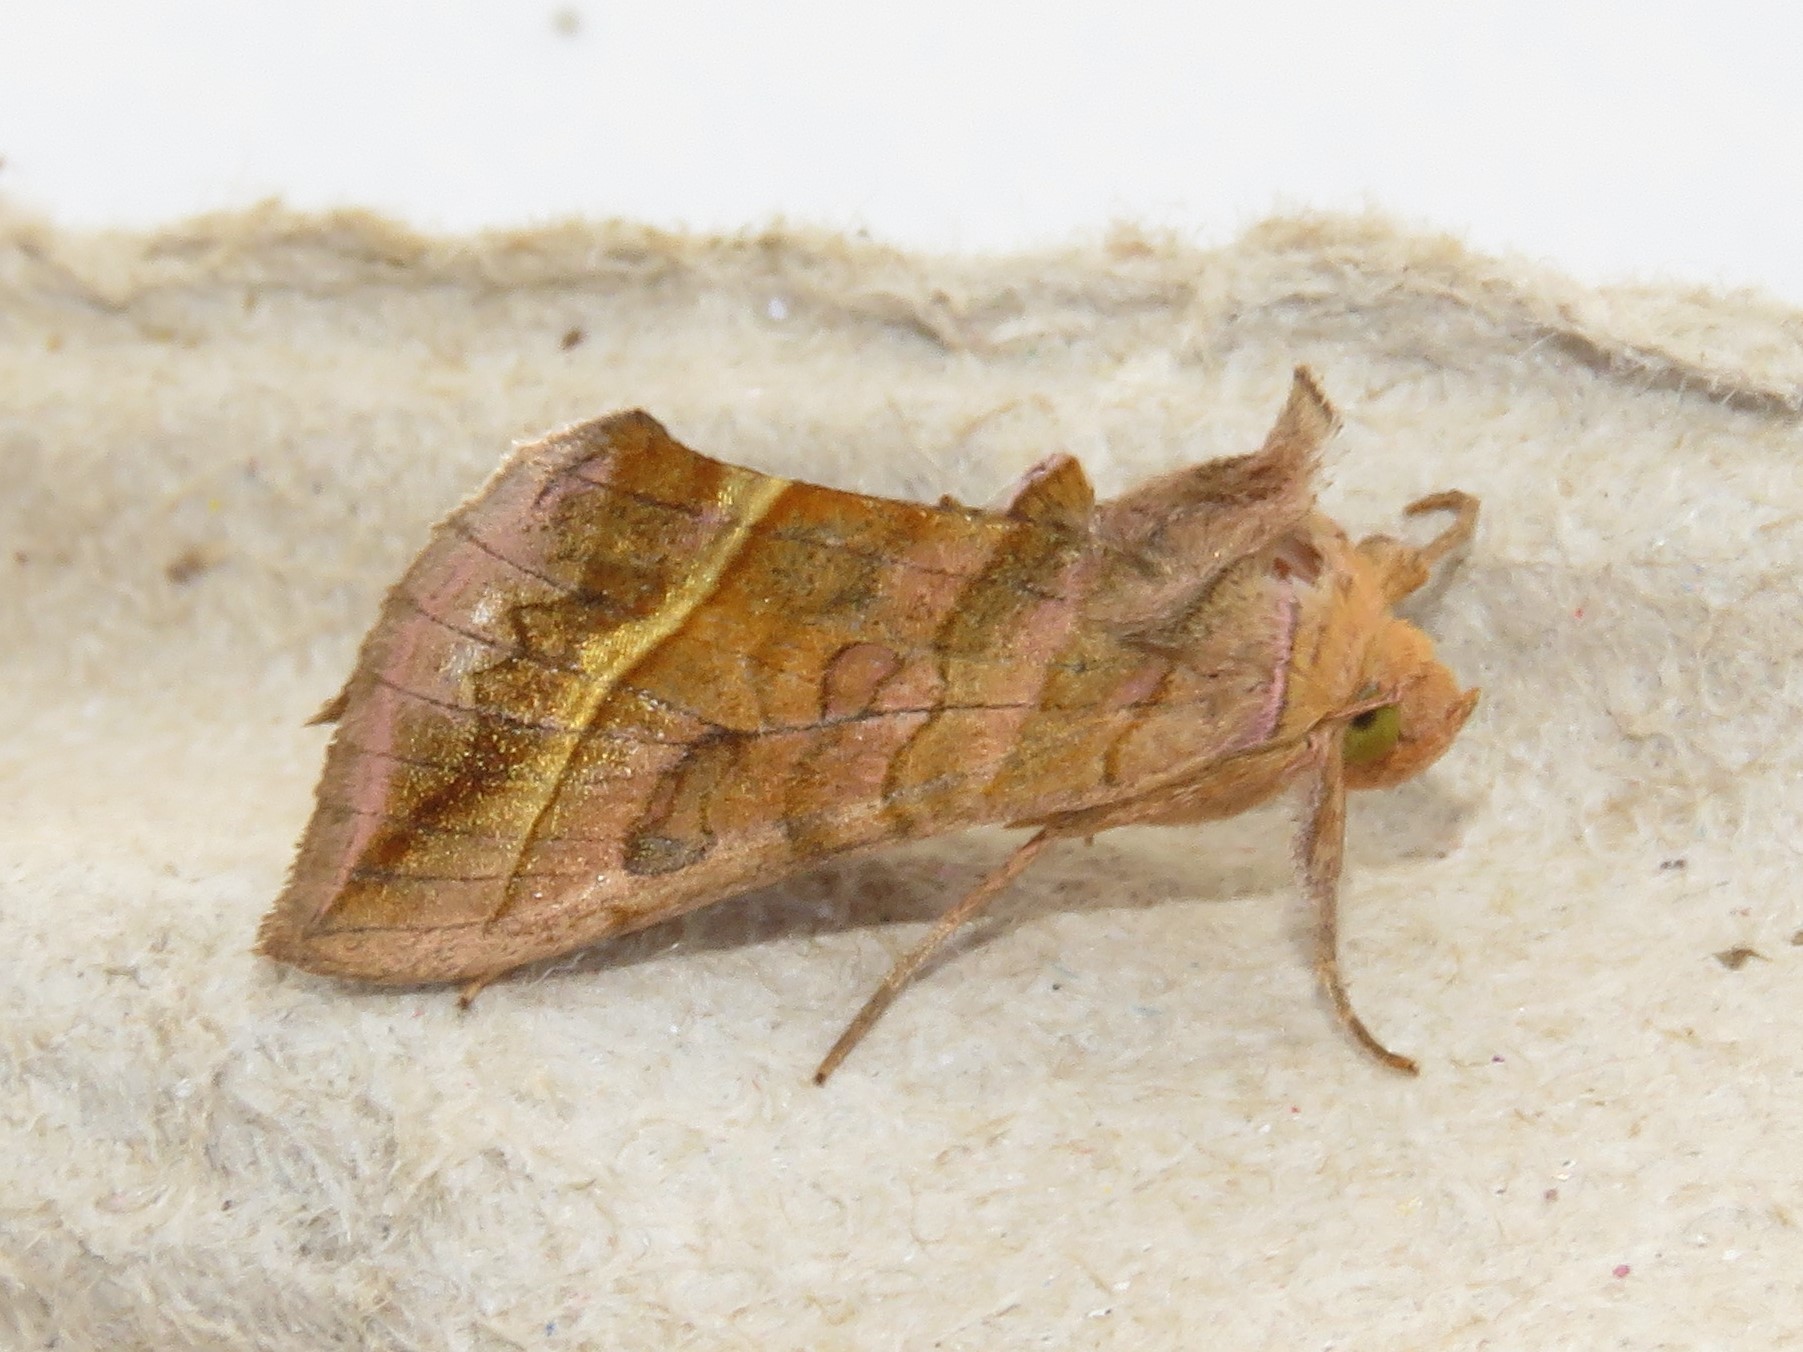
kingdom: Animalia
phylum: Arthropoda
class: Insecta
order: Lepidoptera
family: Noctuidae
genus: Diachrysia
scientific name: Diachrysia aereoides
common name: Dark-spotted looper moth
